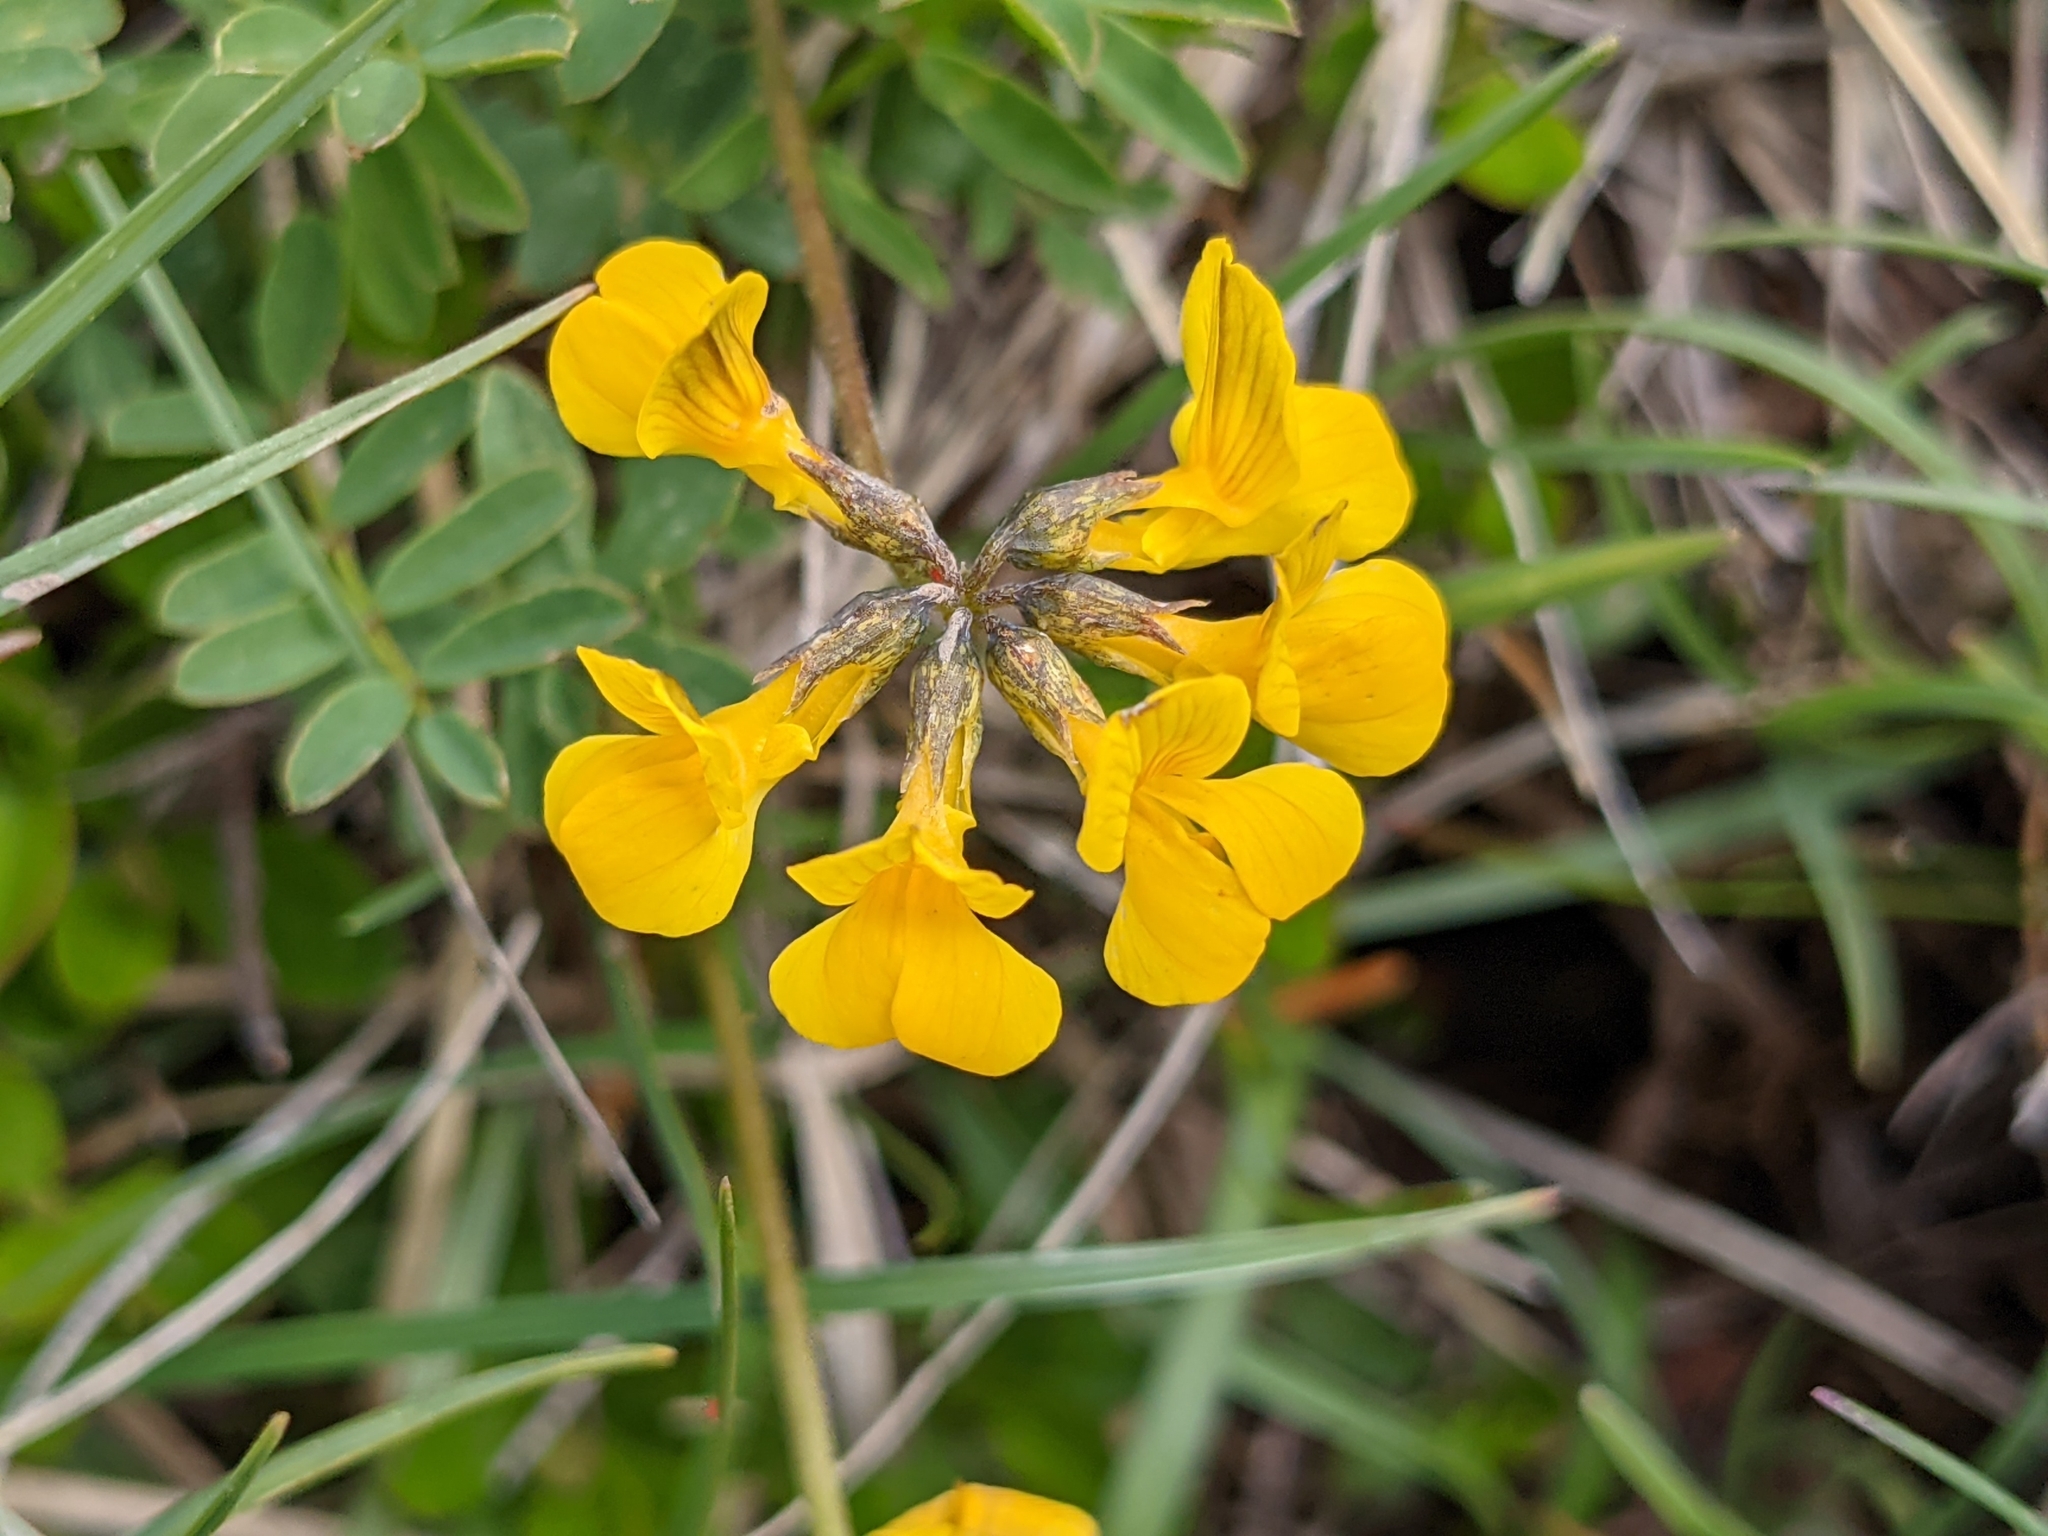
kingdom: Plantae
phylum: Tracheophyta
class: Magnoliopsida
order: Fabales
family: Fabaceae
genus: Hippocrepis
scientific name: Hippocrepis comosa
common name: Horseshoe vetch
